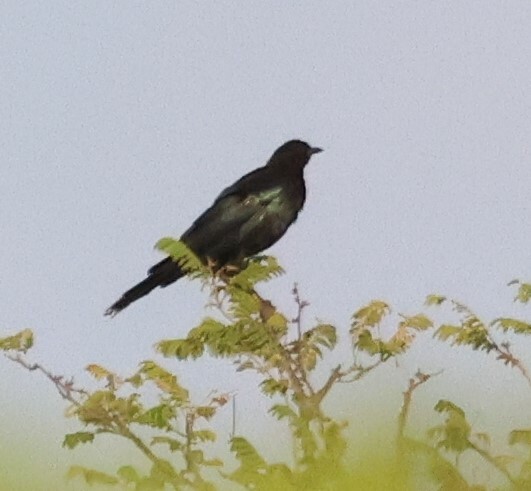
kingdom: Animalia
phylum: Chordata
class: Aves
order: Passeriformes
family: Sturnidae
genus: Lamprotornis
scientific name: Lamprotornis mevesii
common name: Meves's starling
